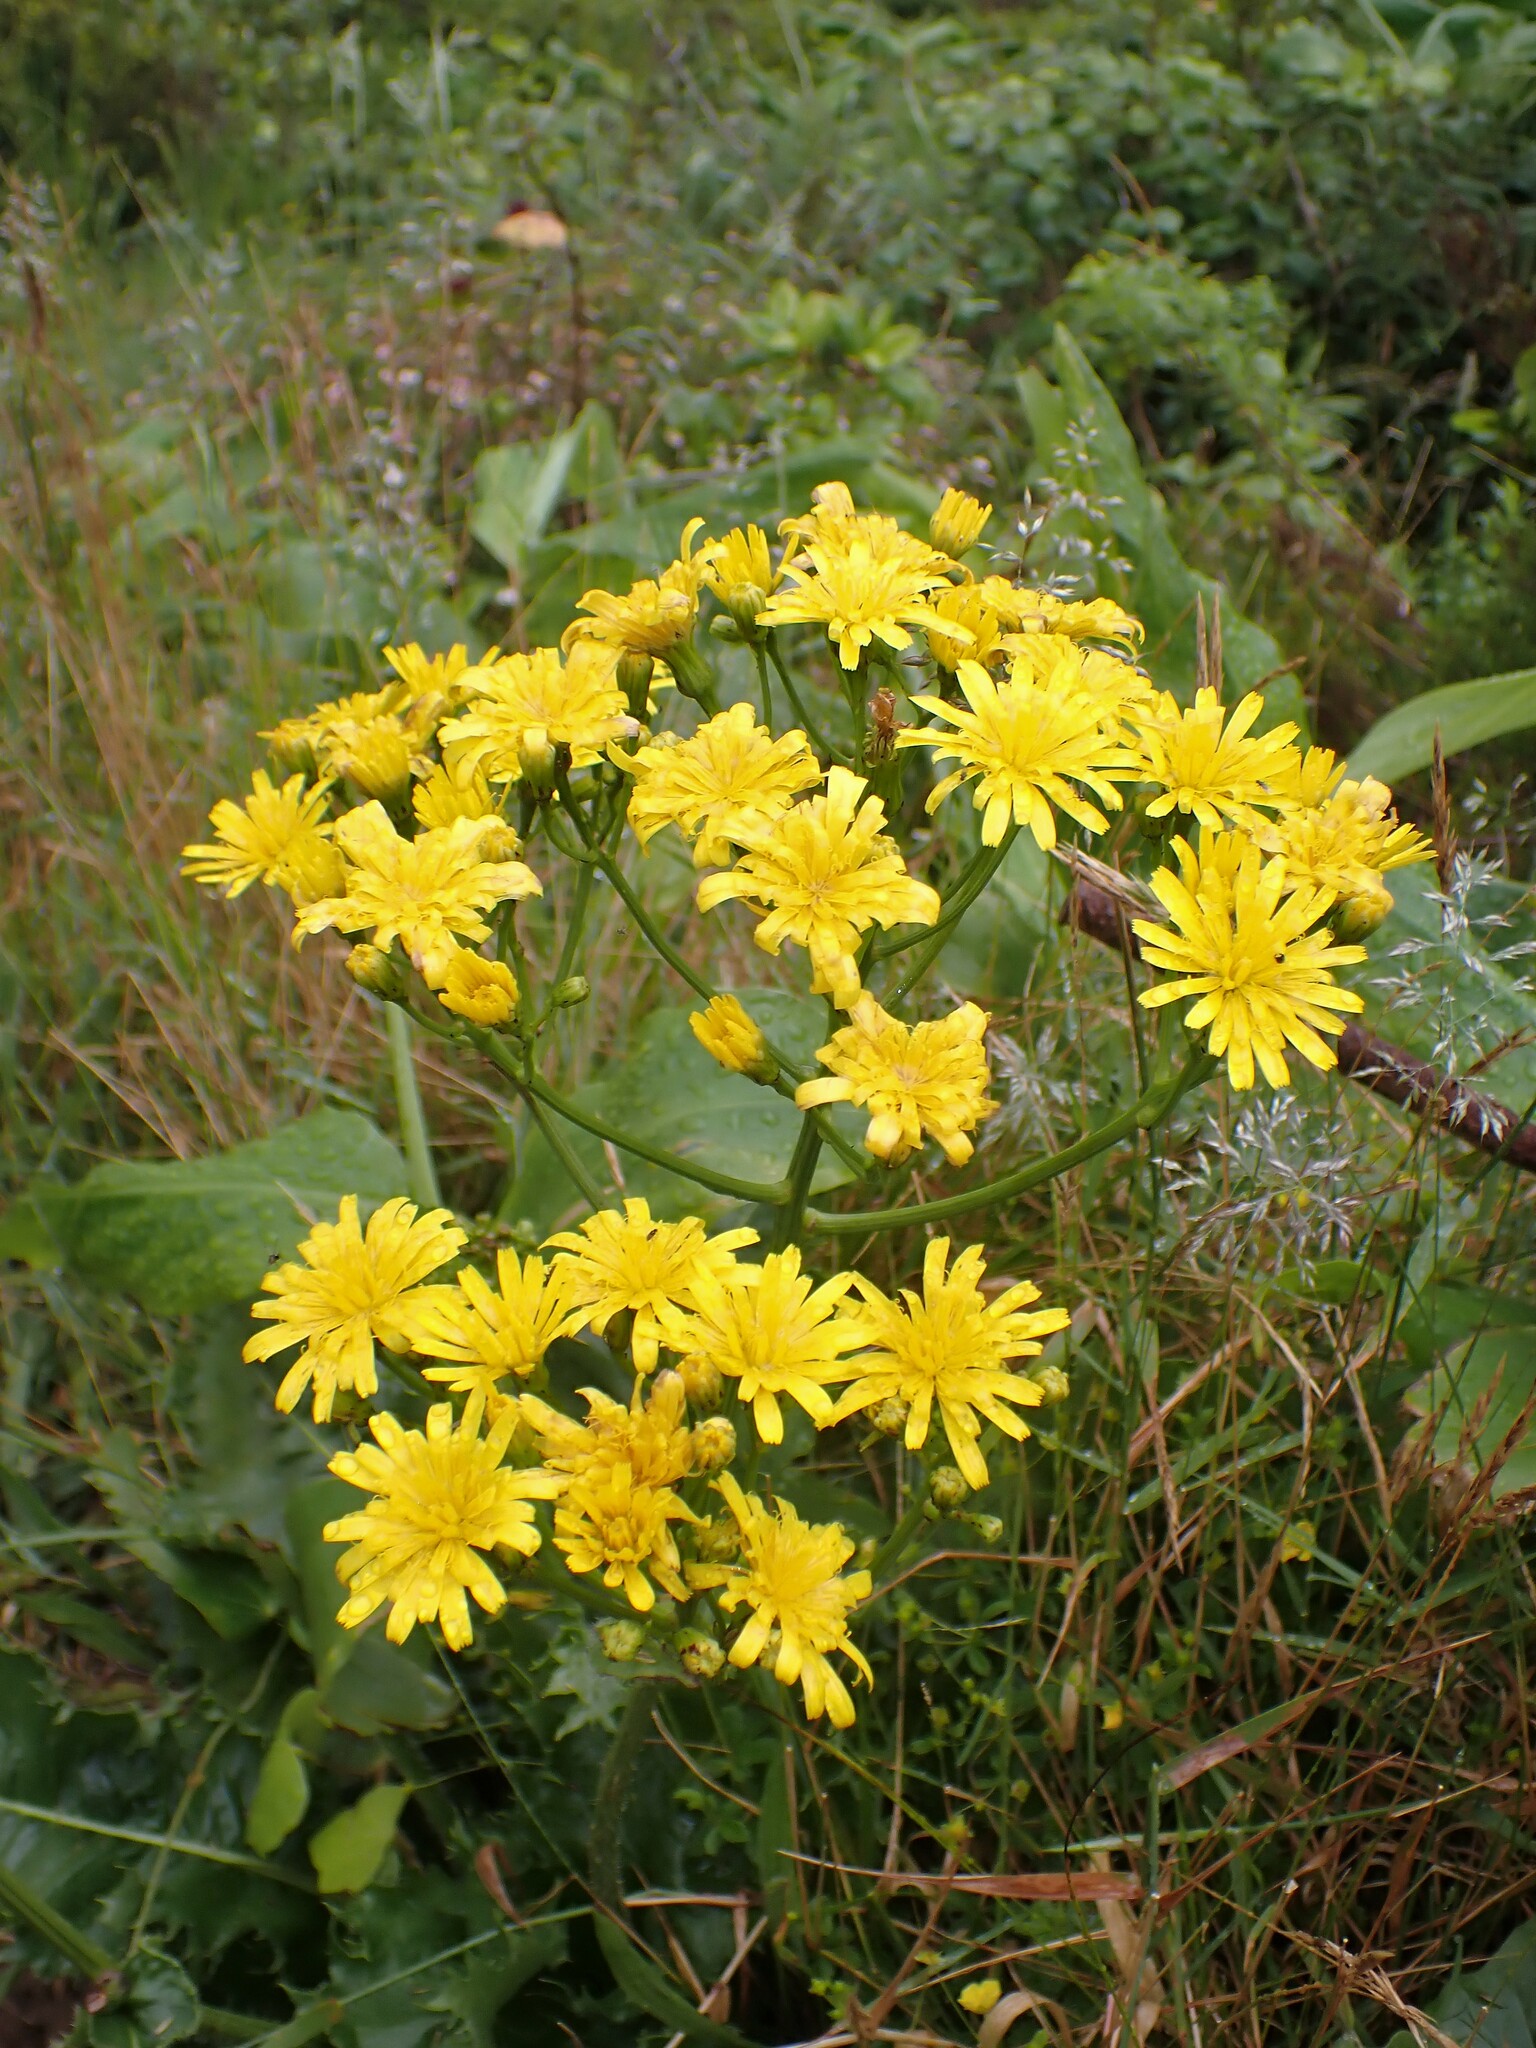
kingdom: Plantae
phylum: Tracheophyta
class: Magnoliopsida
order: Asterales
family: Asteraceae
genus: Leontodon
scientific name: Leontodon rigens
